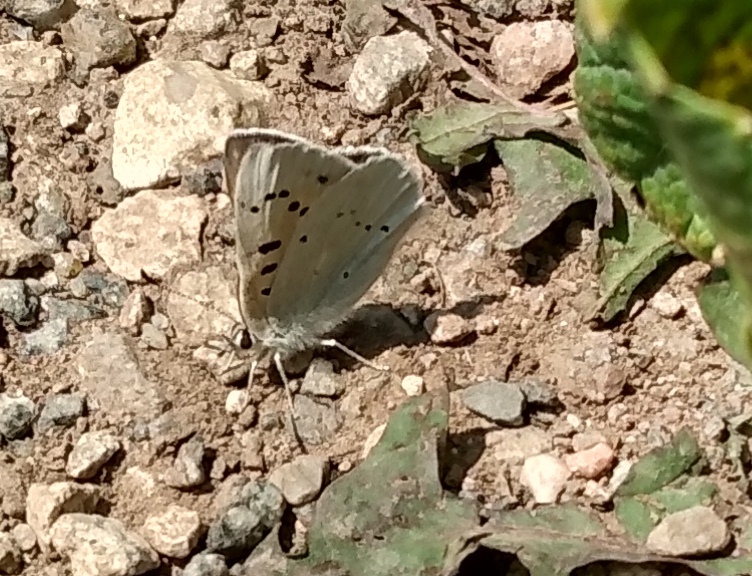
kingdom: Animalia
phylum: Arthropoda
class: Insecta
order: Lepidoptera
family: Lycaenidae
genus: Tharsalea
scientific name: Tharsalea rubidus
